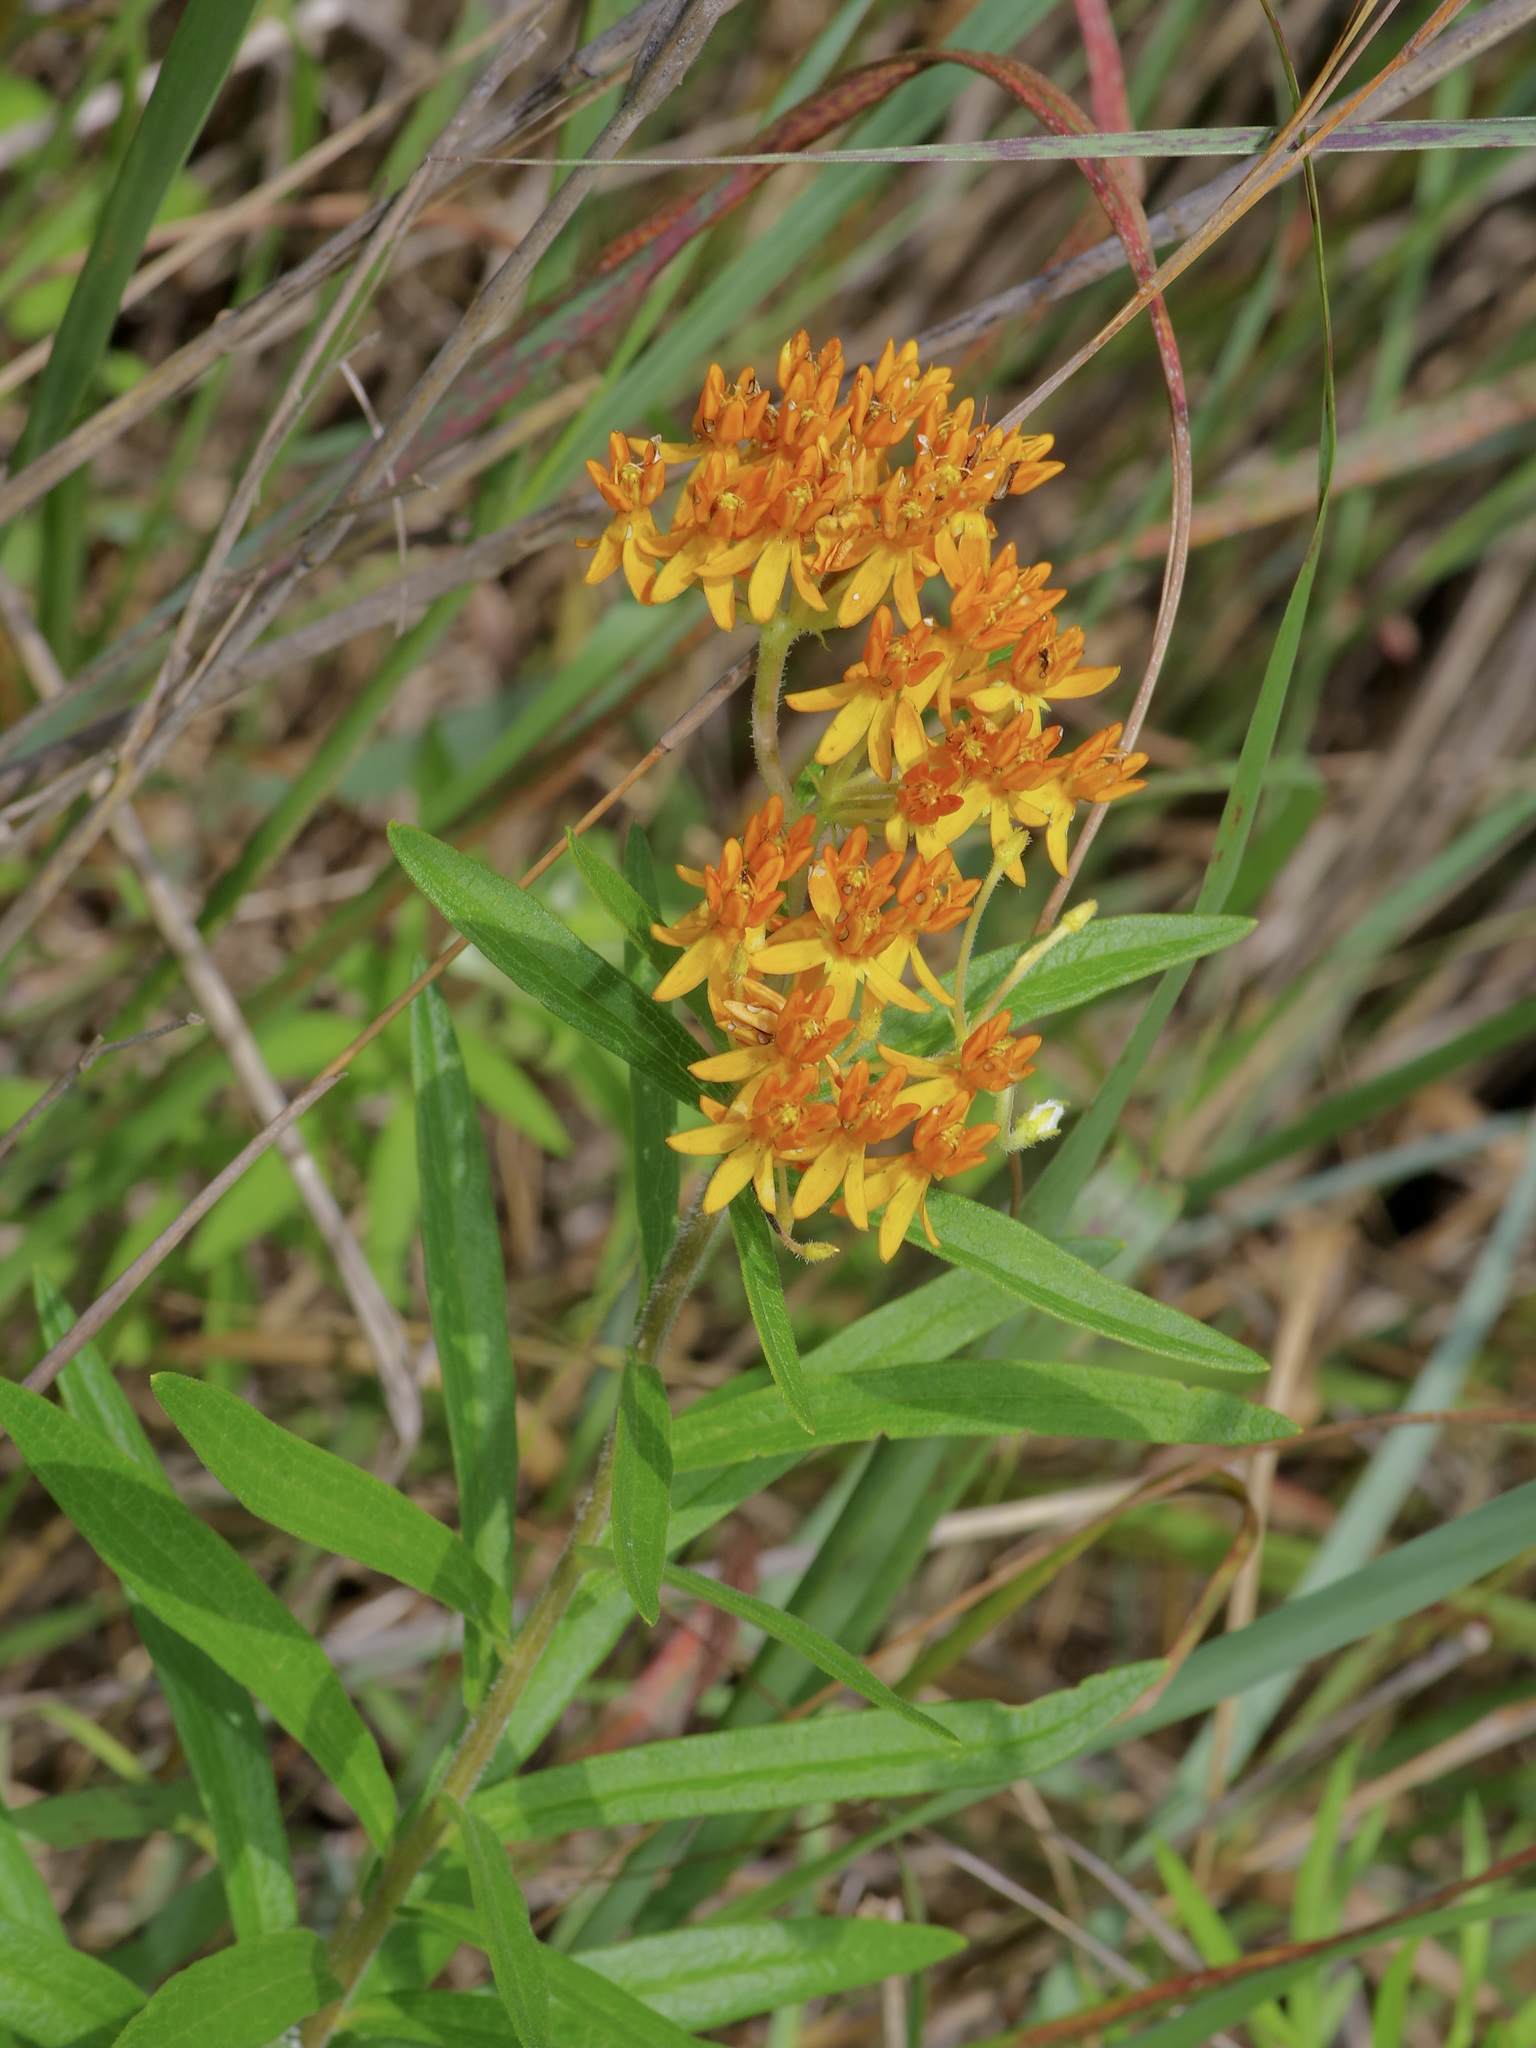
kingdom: Plantae
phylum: Tracheophyta
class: Magnoliopsida
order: Gentianales
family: Apocynaceae
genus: Asclepias
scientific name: Asclepias tuberosa
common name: Butterfly milkweed
